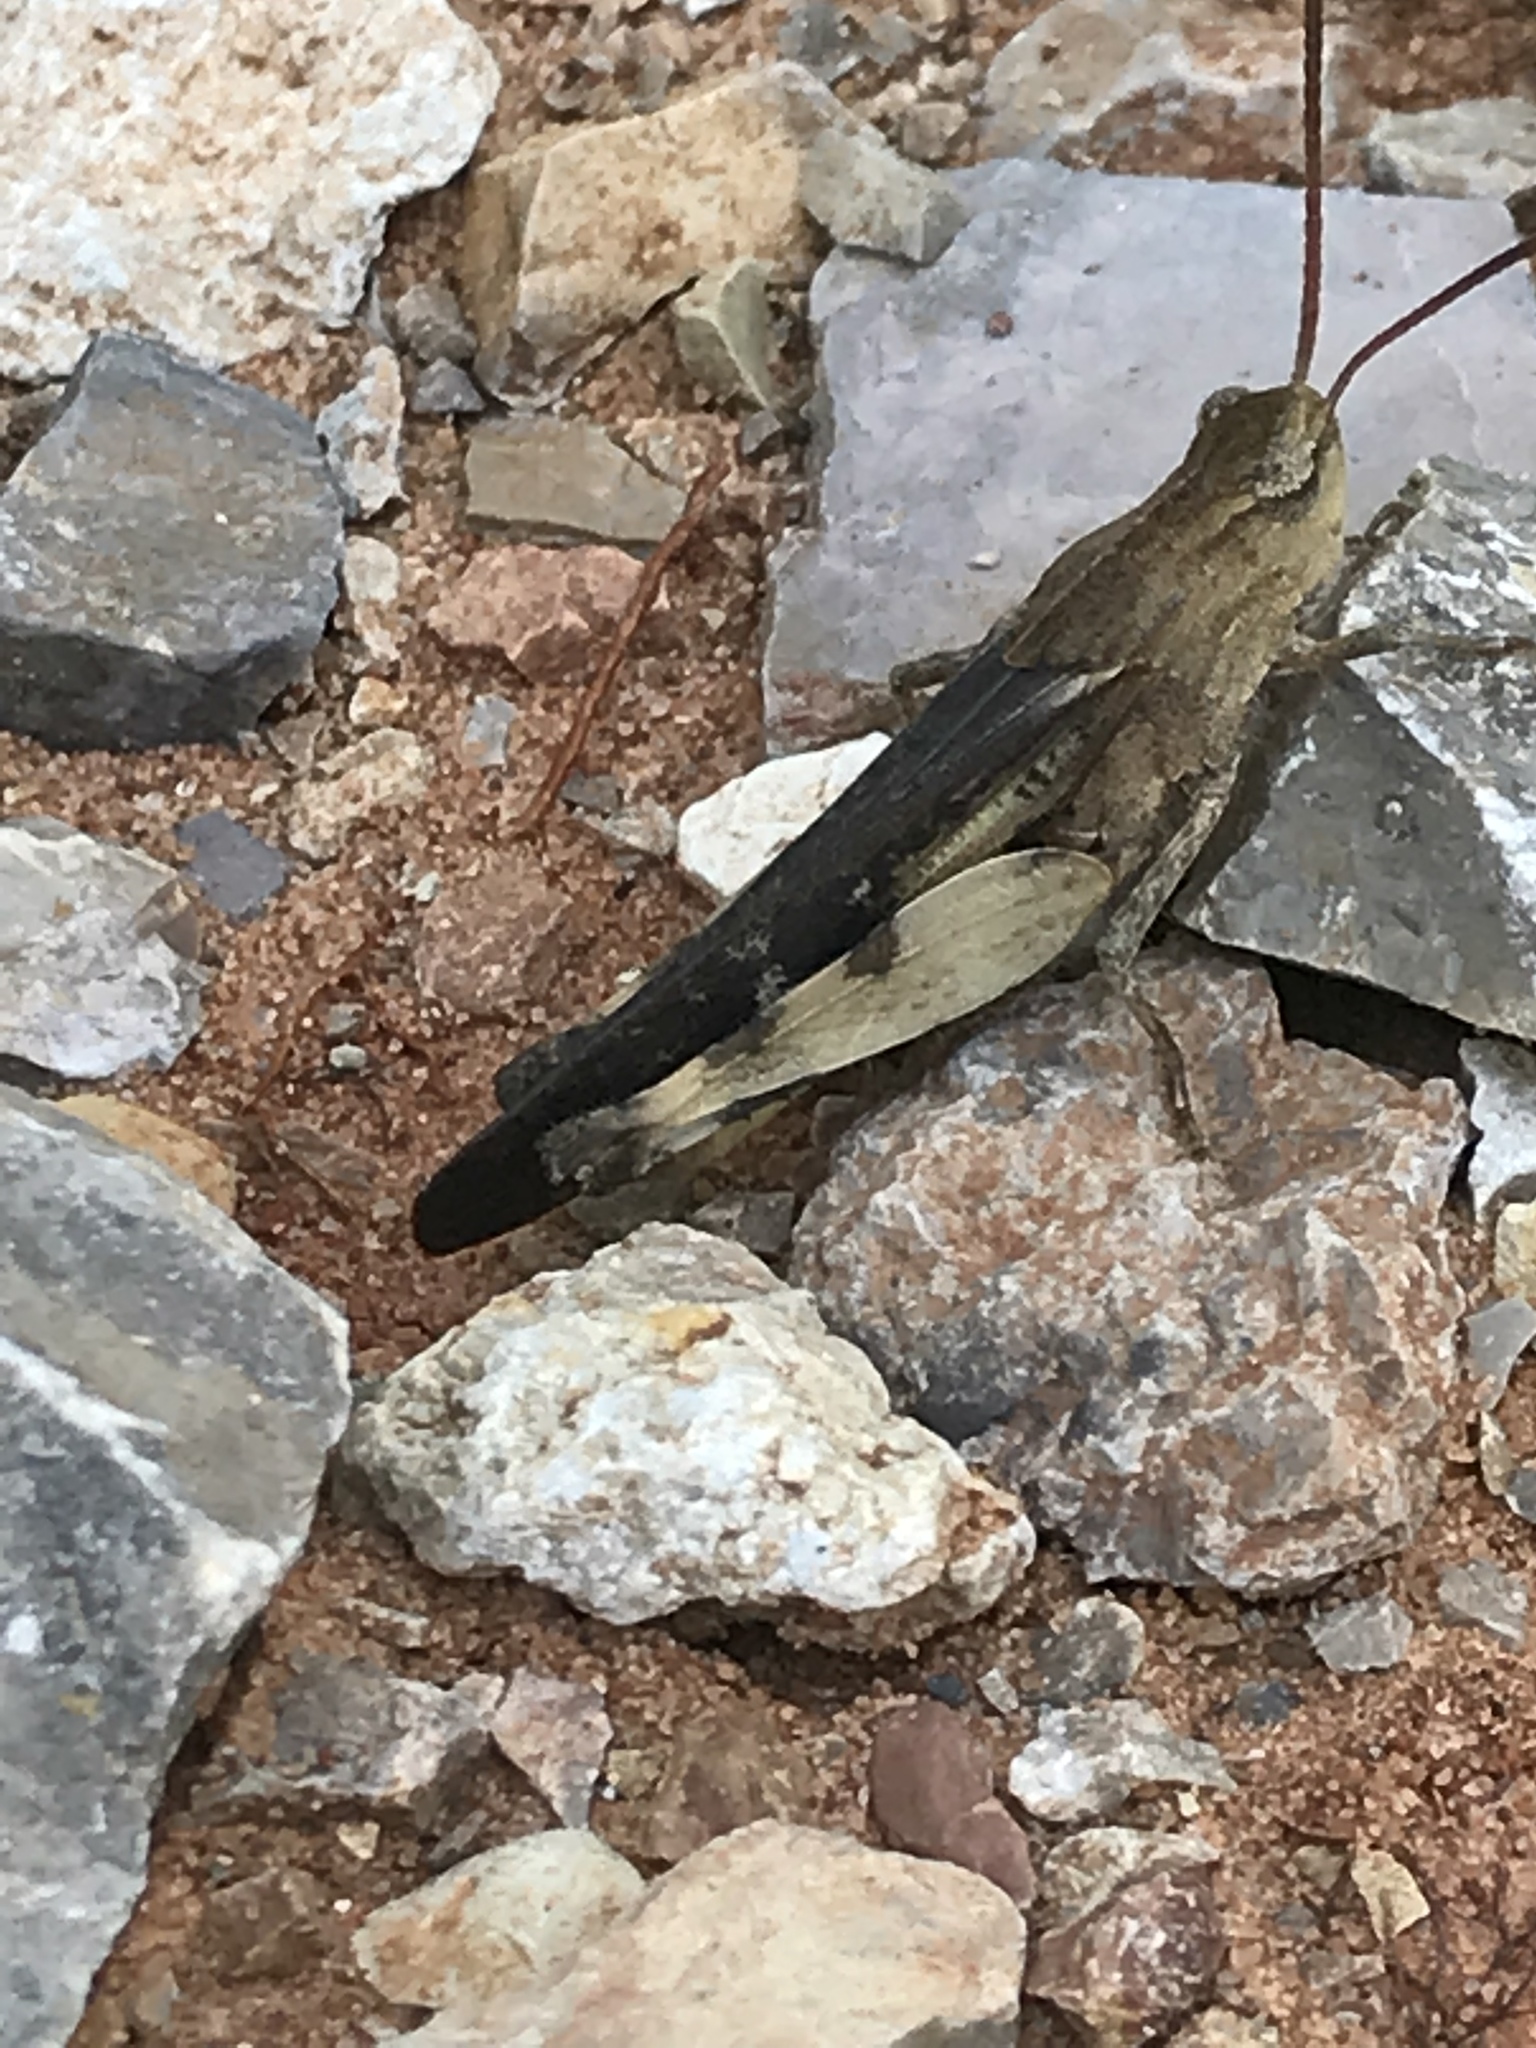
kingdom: Animalia
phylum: Arthropoda
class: Insecta
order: Orthoptera
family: Acrididae
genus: Chortophaga
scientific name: Chortophaga viridifasciata
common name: Green-striped grasshopper
